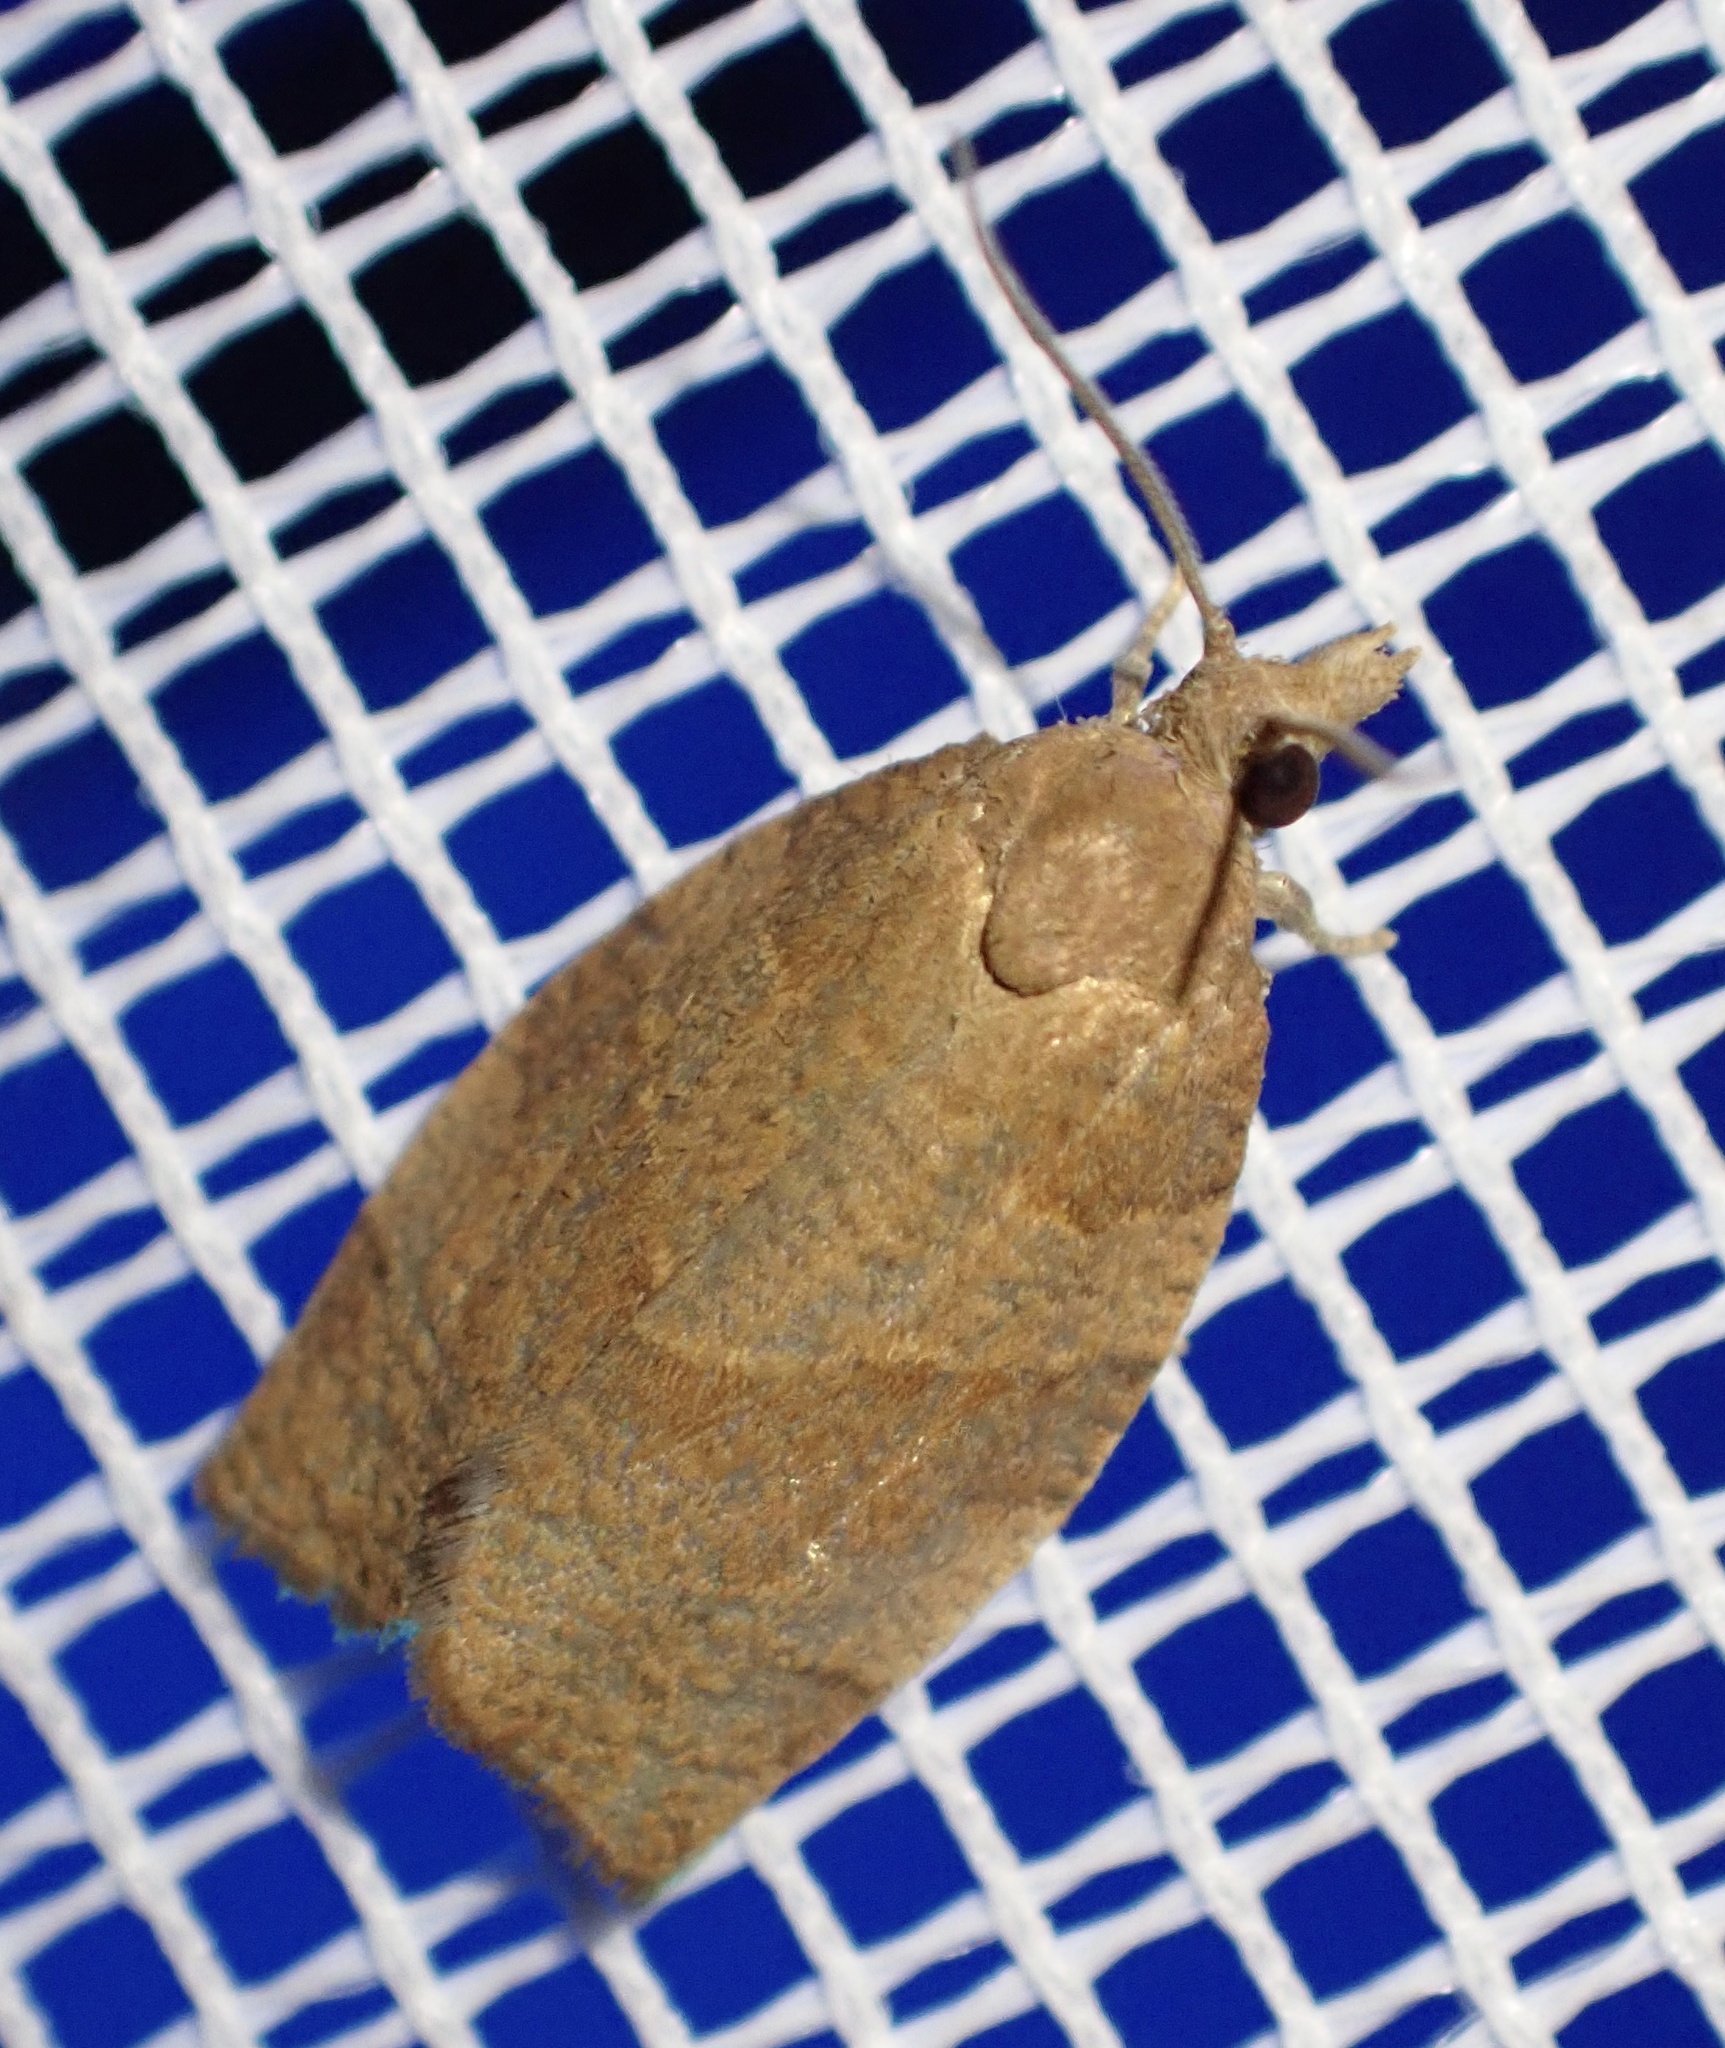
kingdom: Animalia
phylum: Arthropoda
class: Insecta
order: Lepidoptera
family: Tortricidae
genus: Pandemis
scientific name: Pandemis heparana
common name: Dark fruit-tree tortrix
